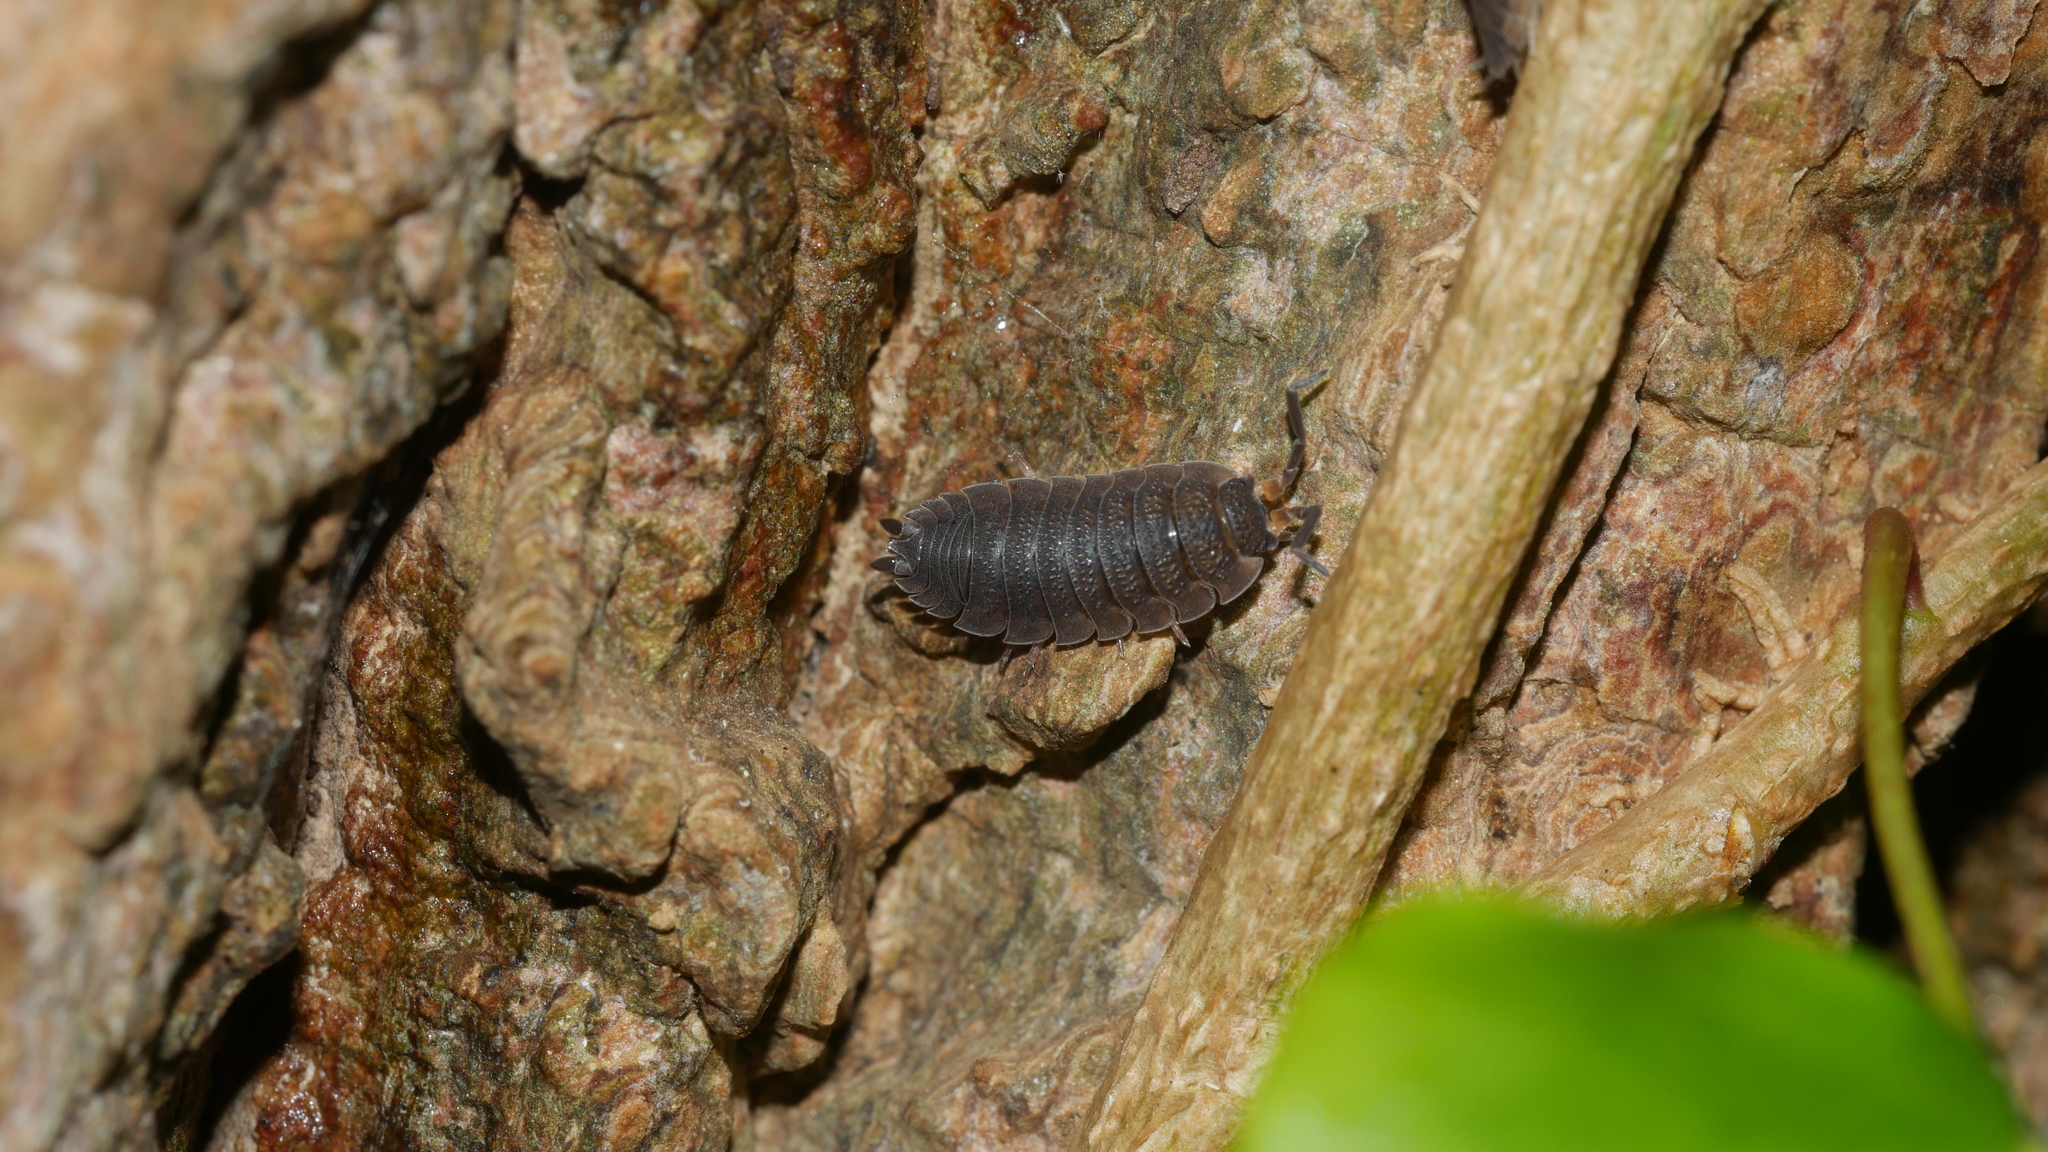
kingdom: Animalia
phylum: Arthropoda
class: Malacostraca
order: Isopoda
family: Porcellionidae
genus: Porcellio
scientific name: Porcellio scaber
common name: Common rough woodlouse
